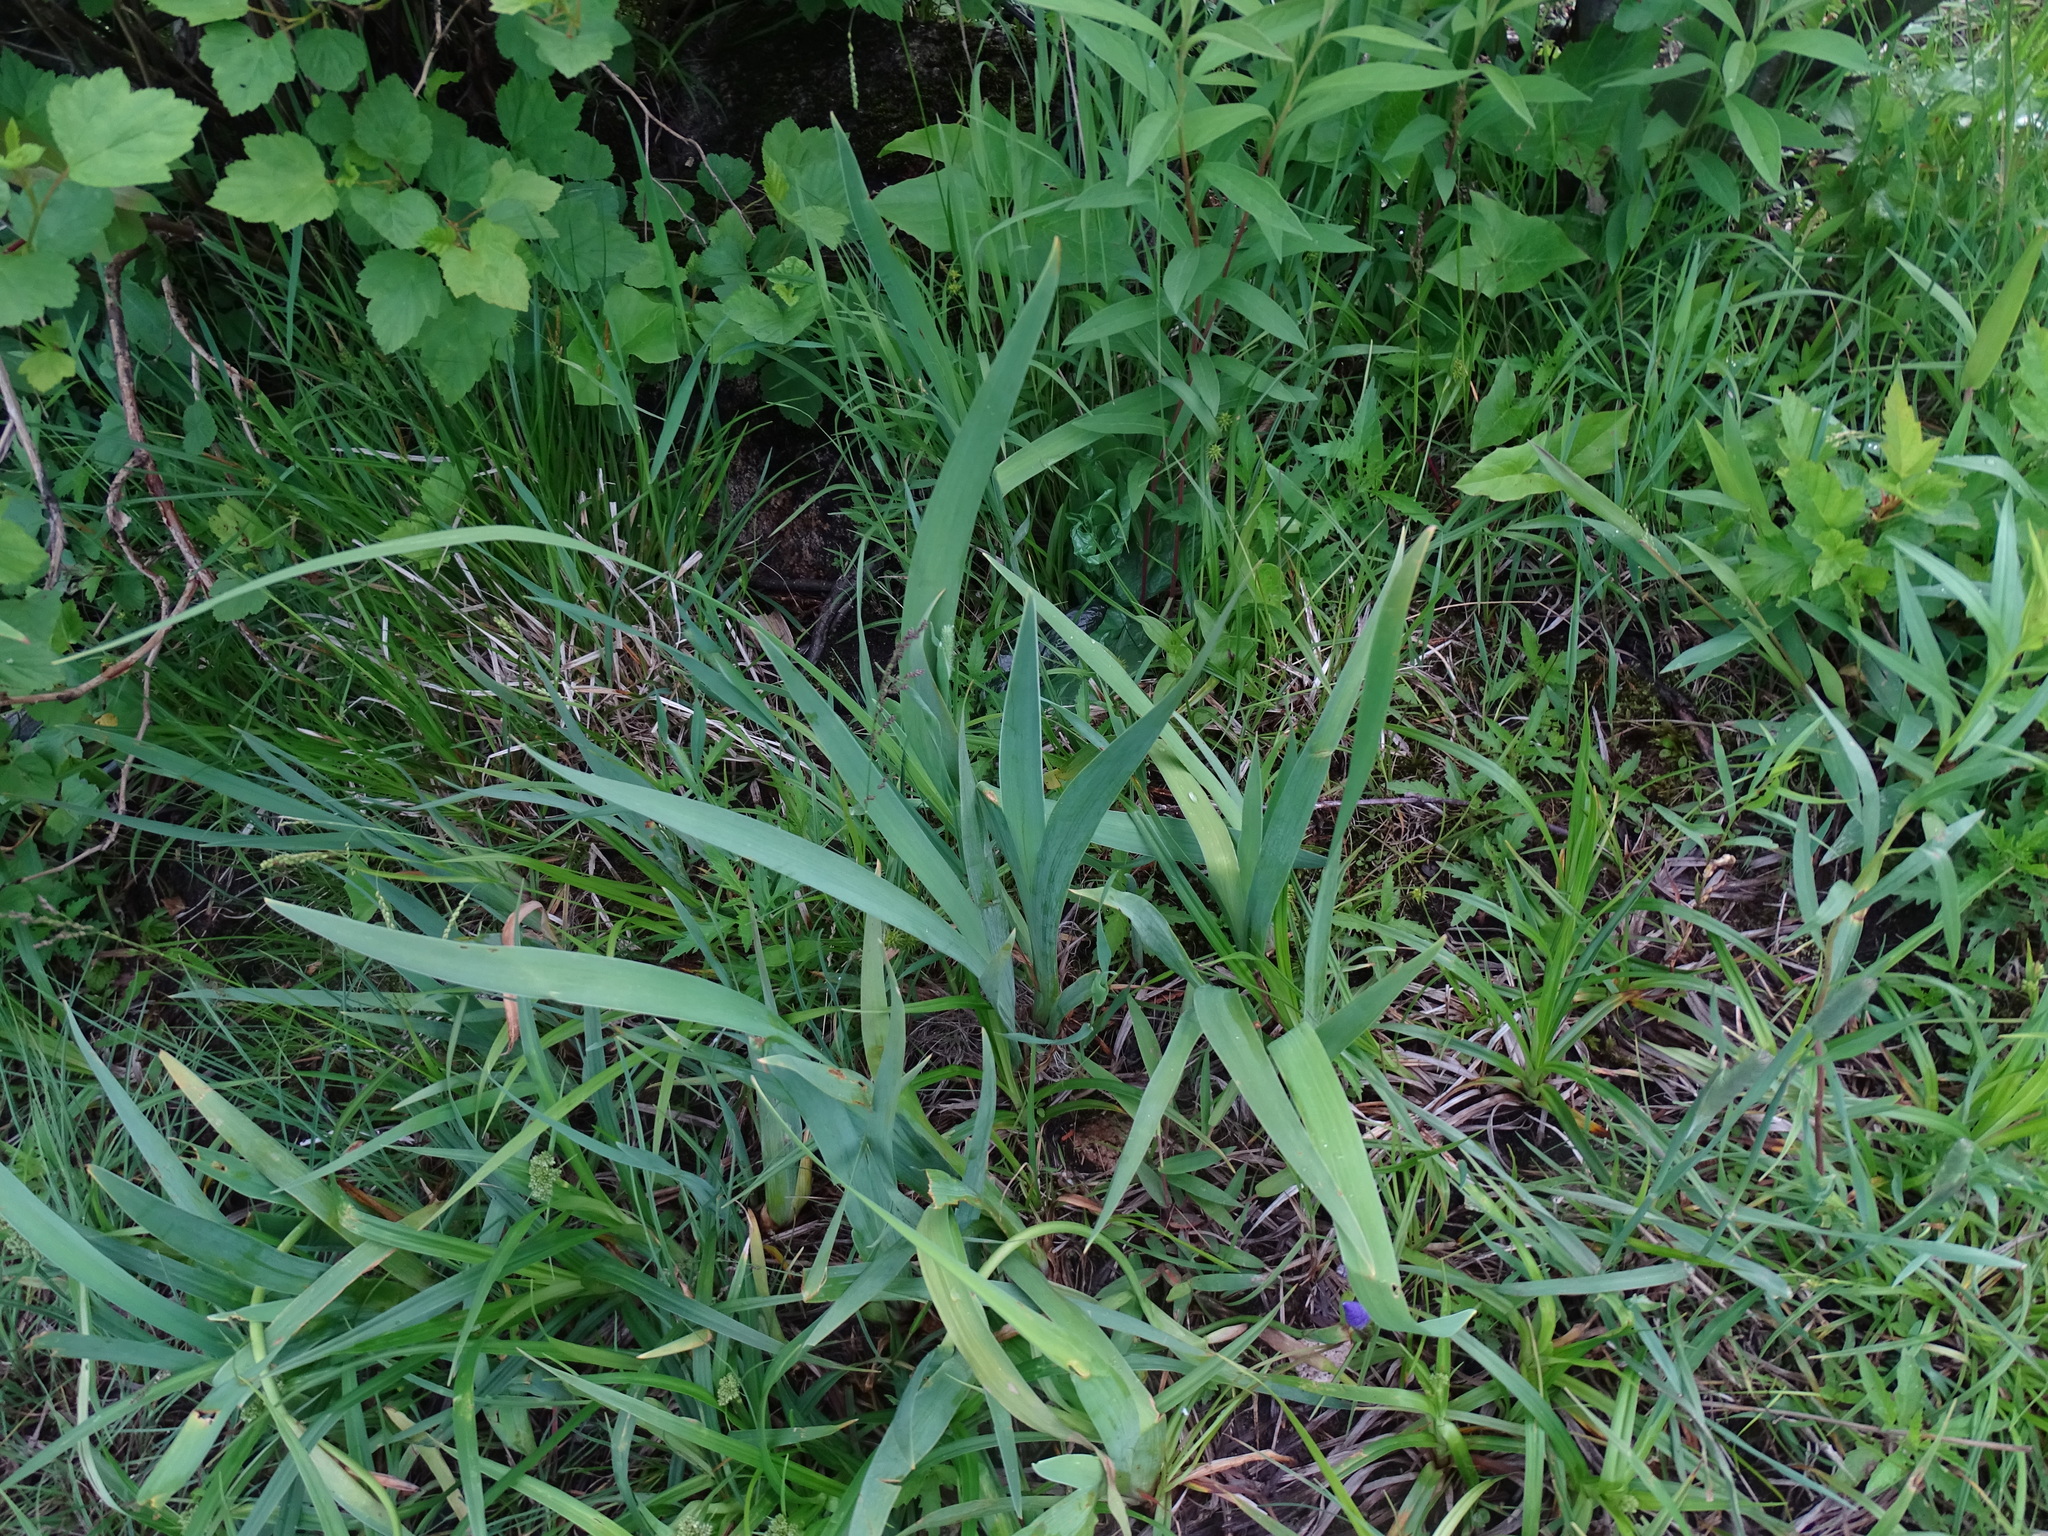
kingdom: Plantae
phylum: Tracheophyta
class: Liliopsida
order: Asparagales
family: Iridaceae
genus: Iris
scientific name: Iris versicolor
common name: Purple iris
